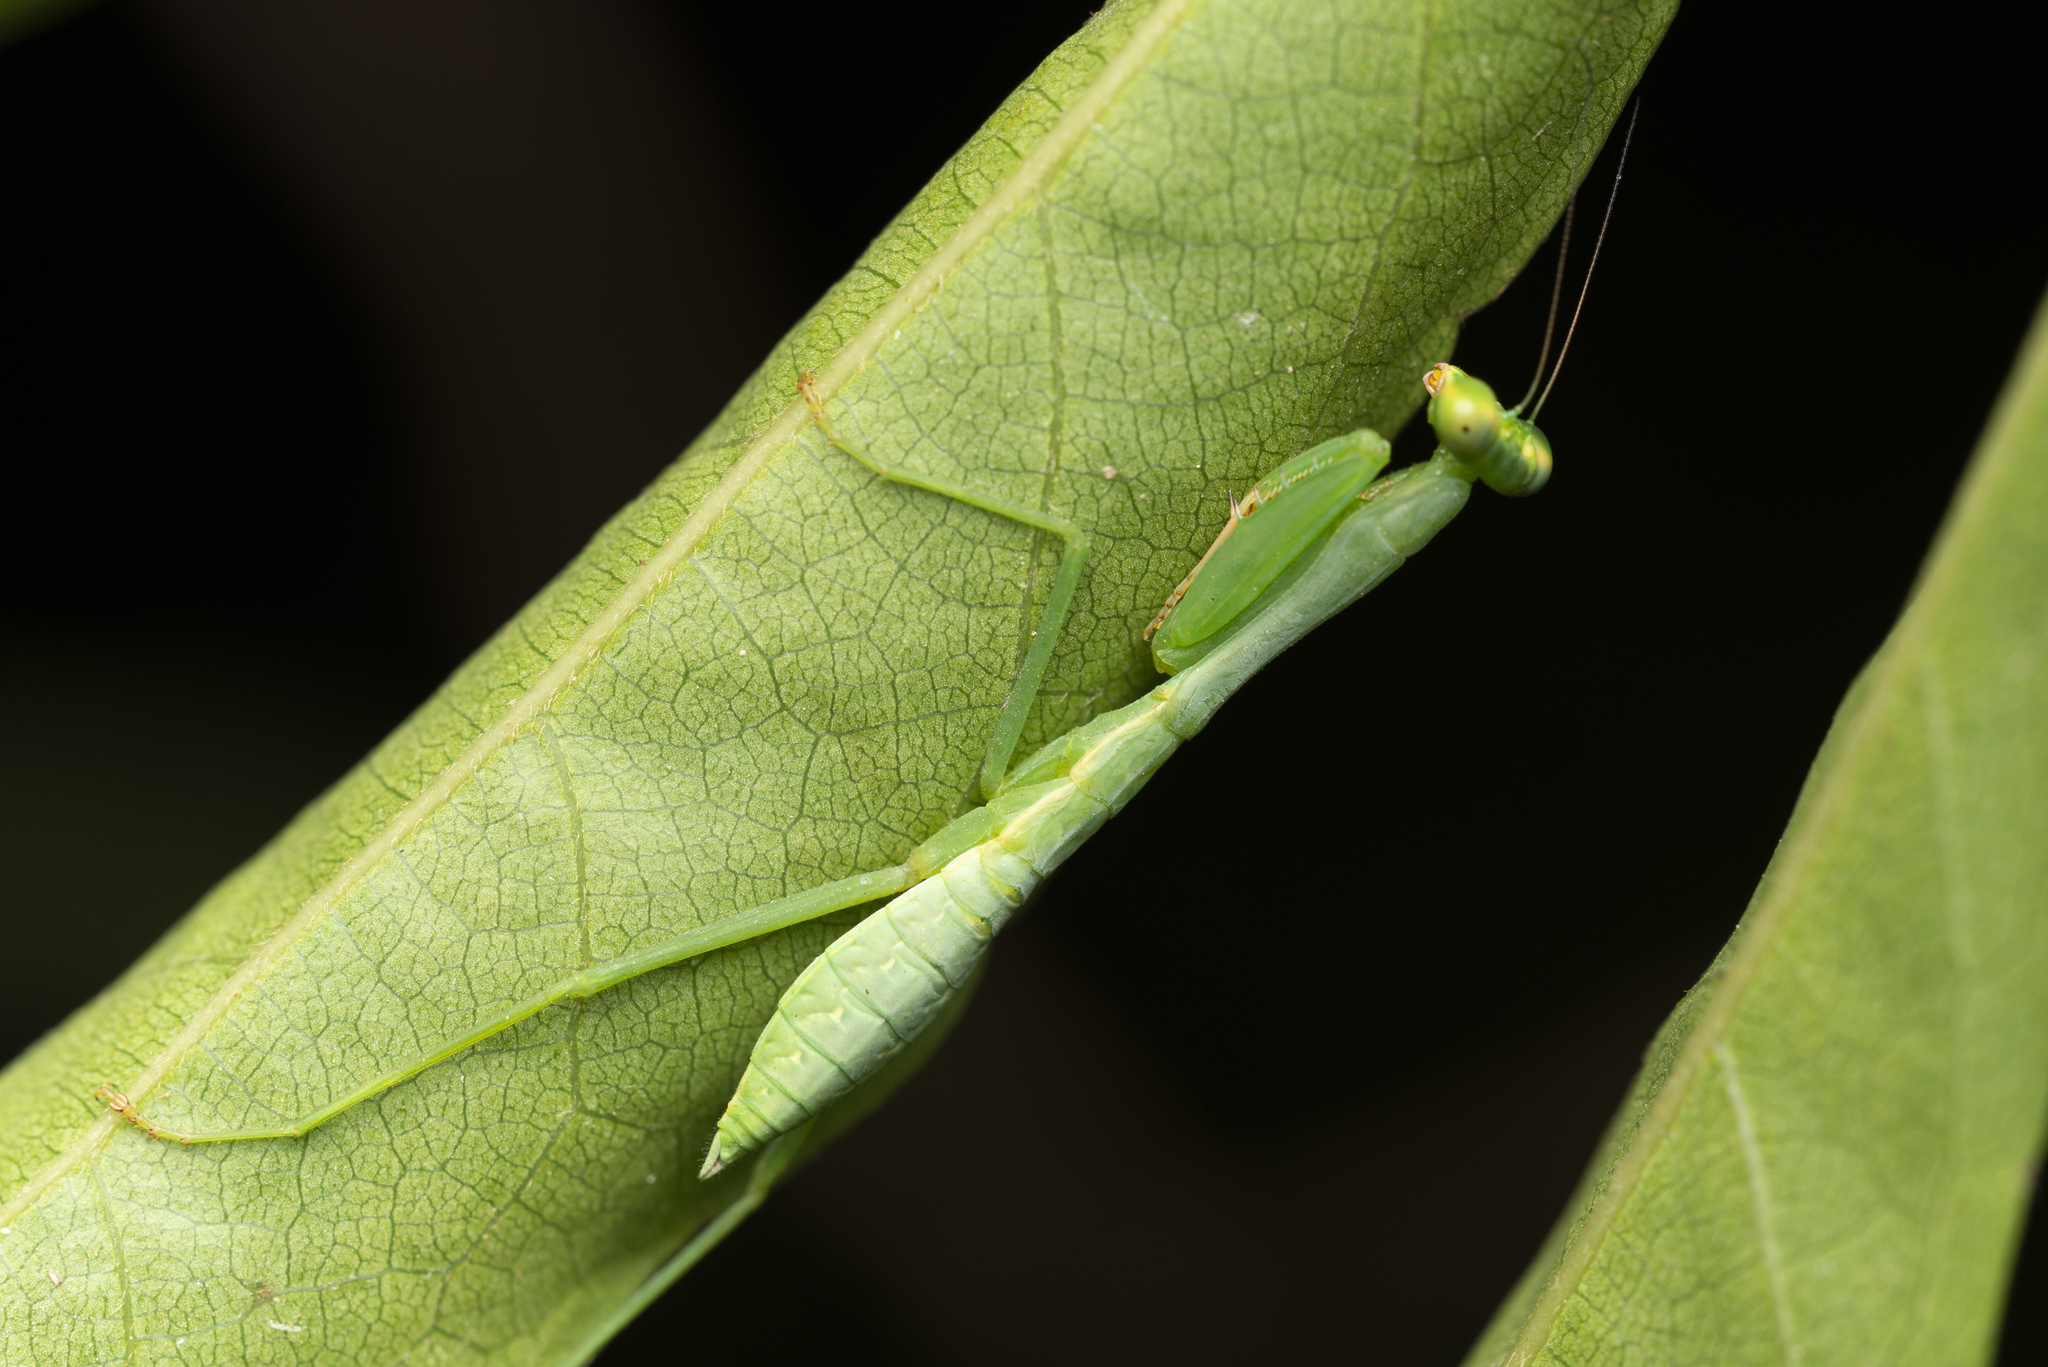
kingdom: Animalia
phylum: Arthropoda
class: Insecta
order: Mantodea
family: Mantidae
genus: Titanodula
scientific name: Titanodula formosana
